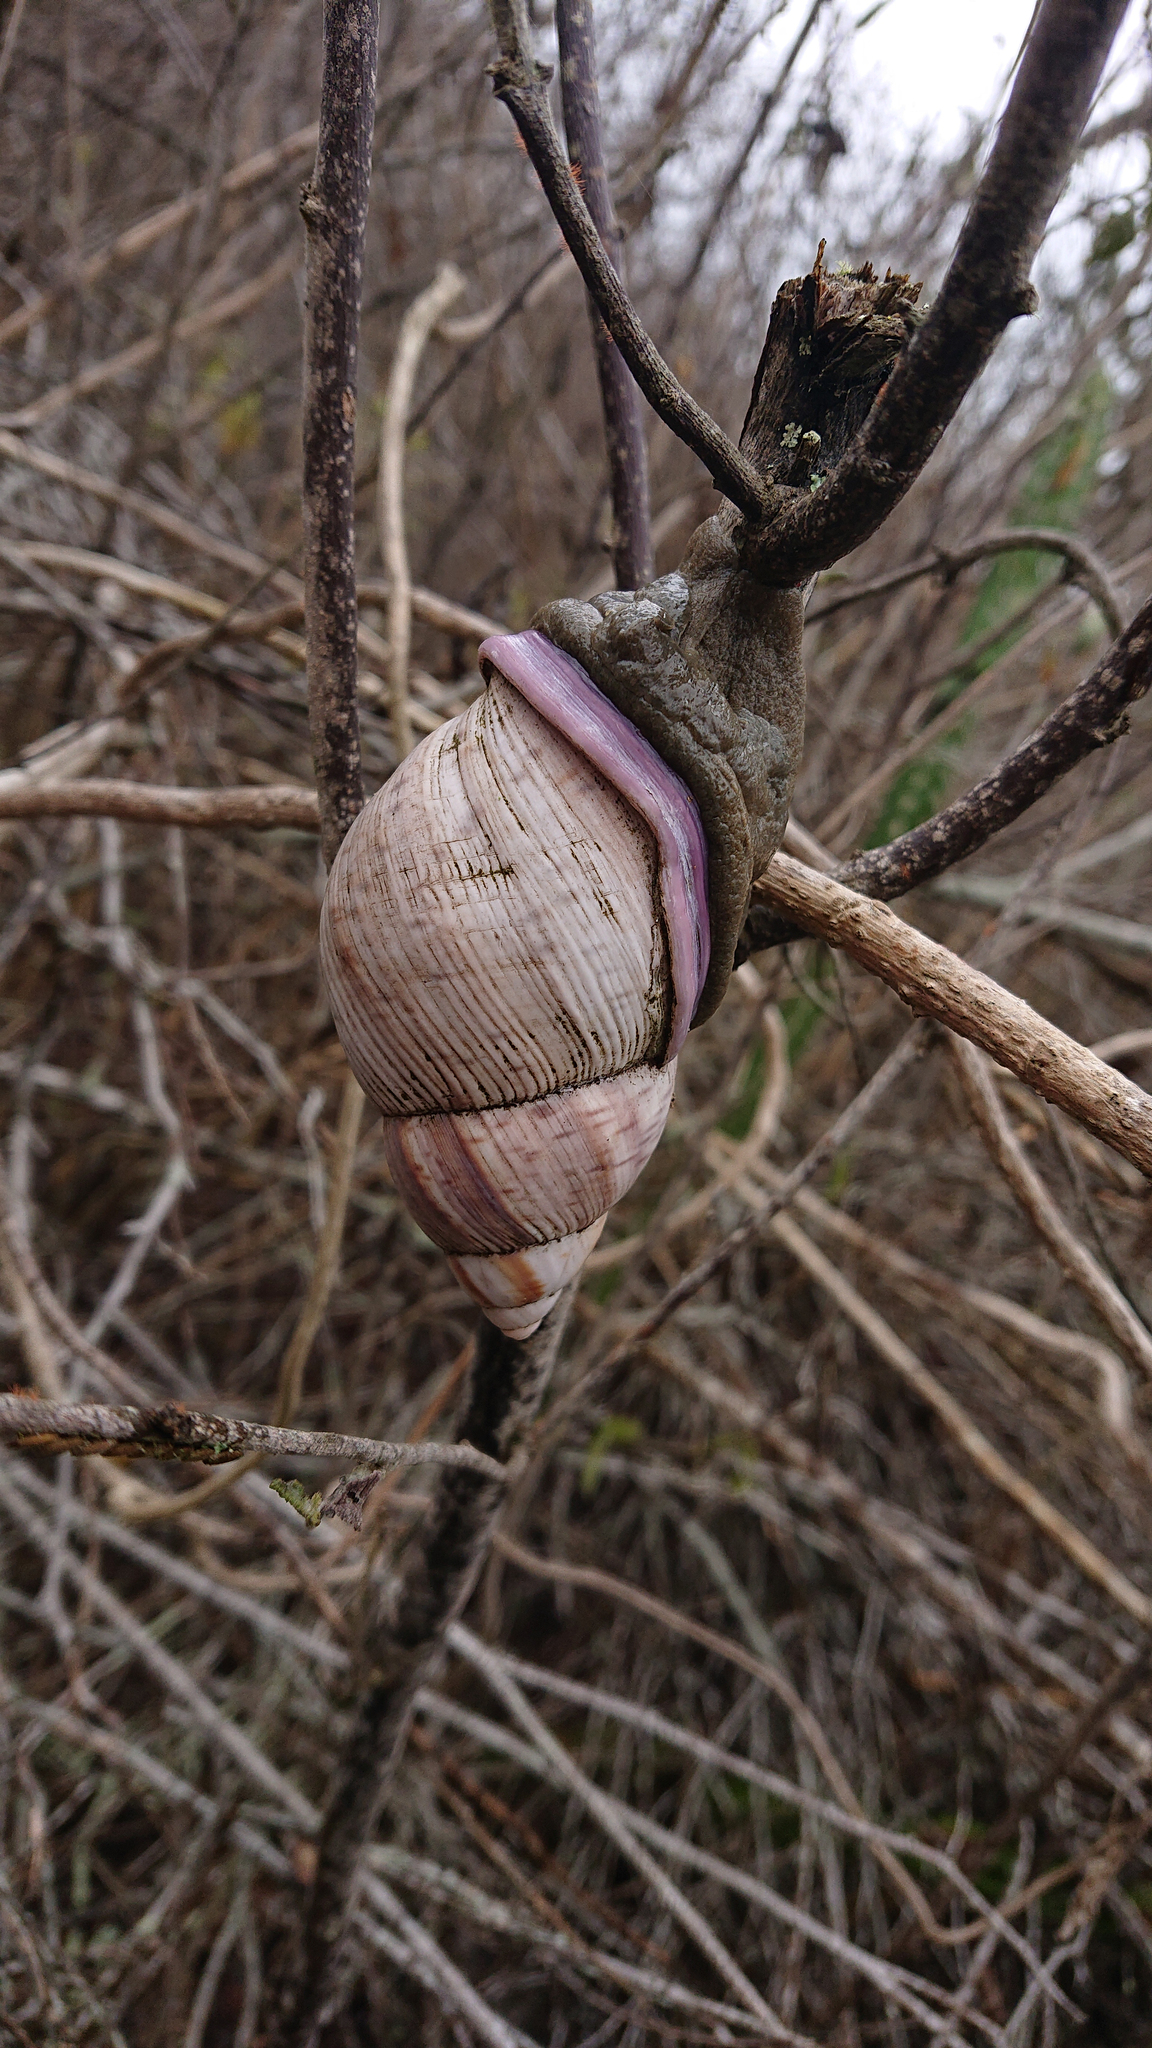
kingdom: Animalia
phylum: Mollusca
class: Gastropoda
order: Stylommatophora
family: Orthalicidae
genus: Porphyrobaphe
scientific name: Porphyrobaphe iostoma
